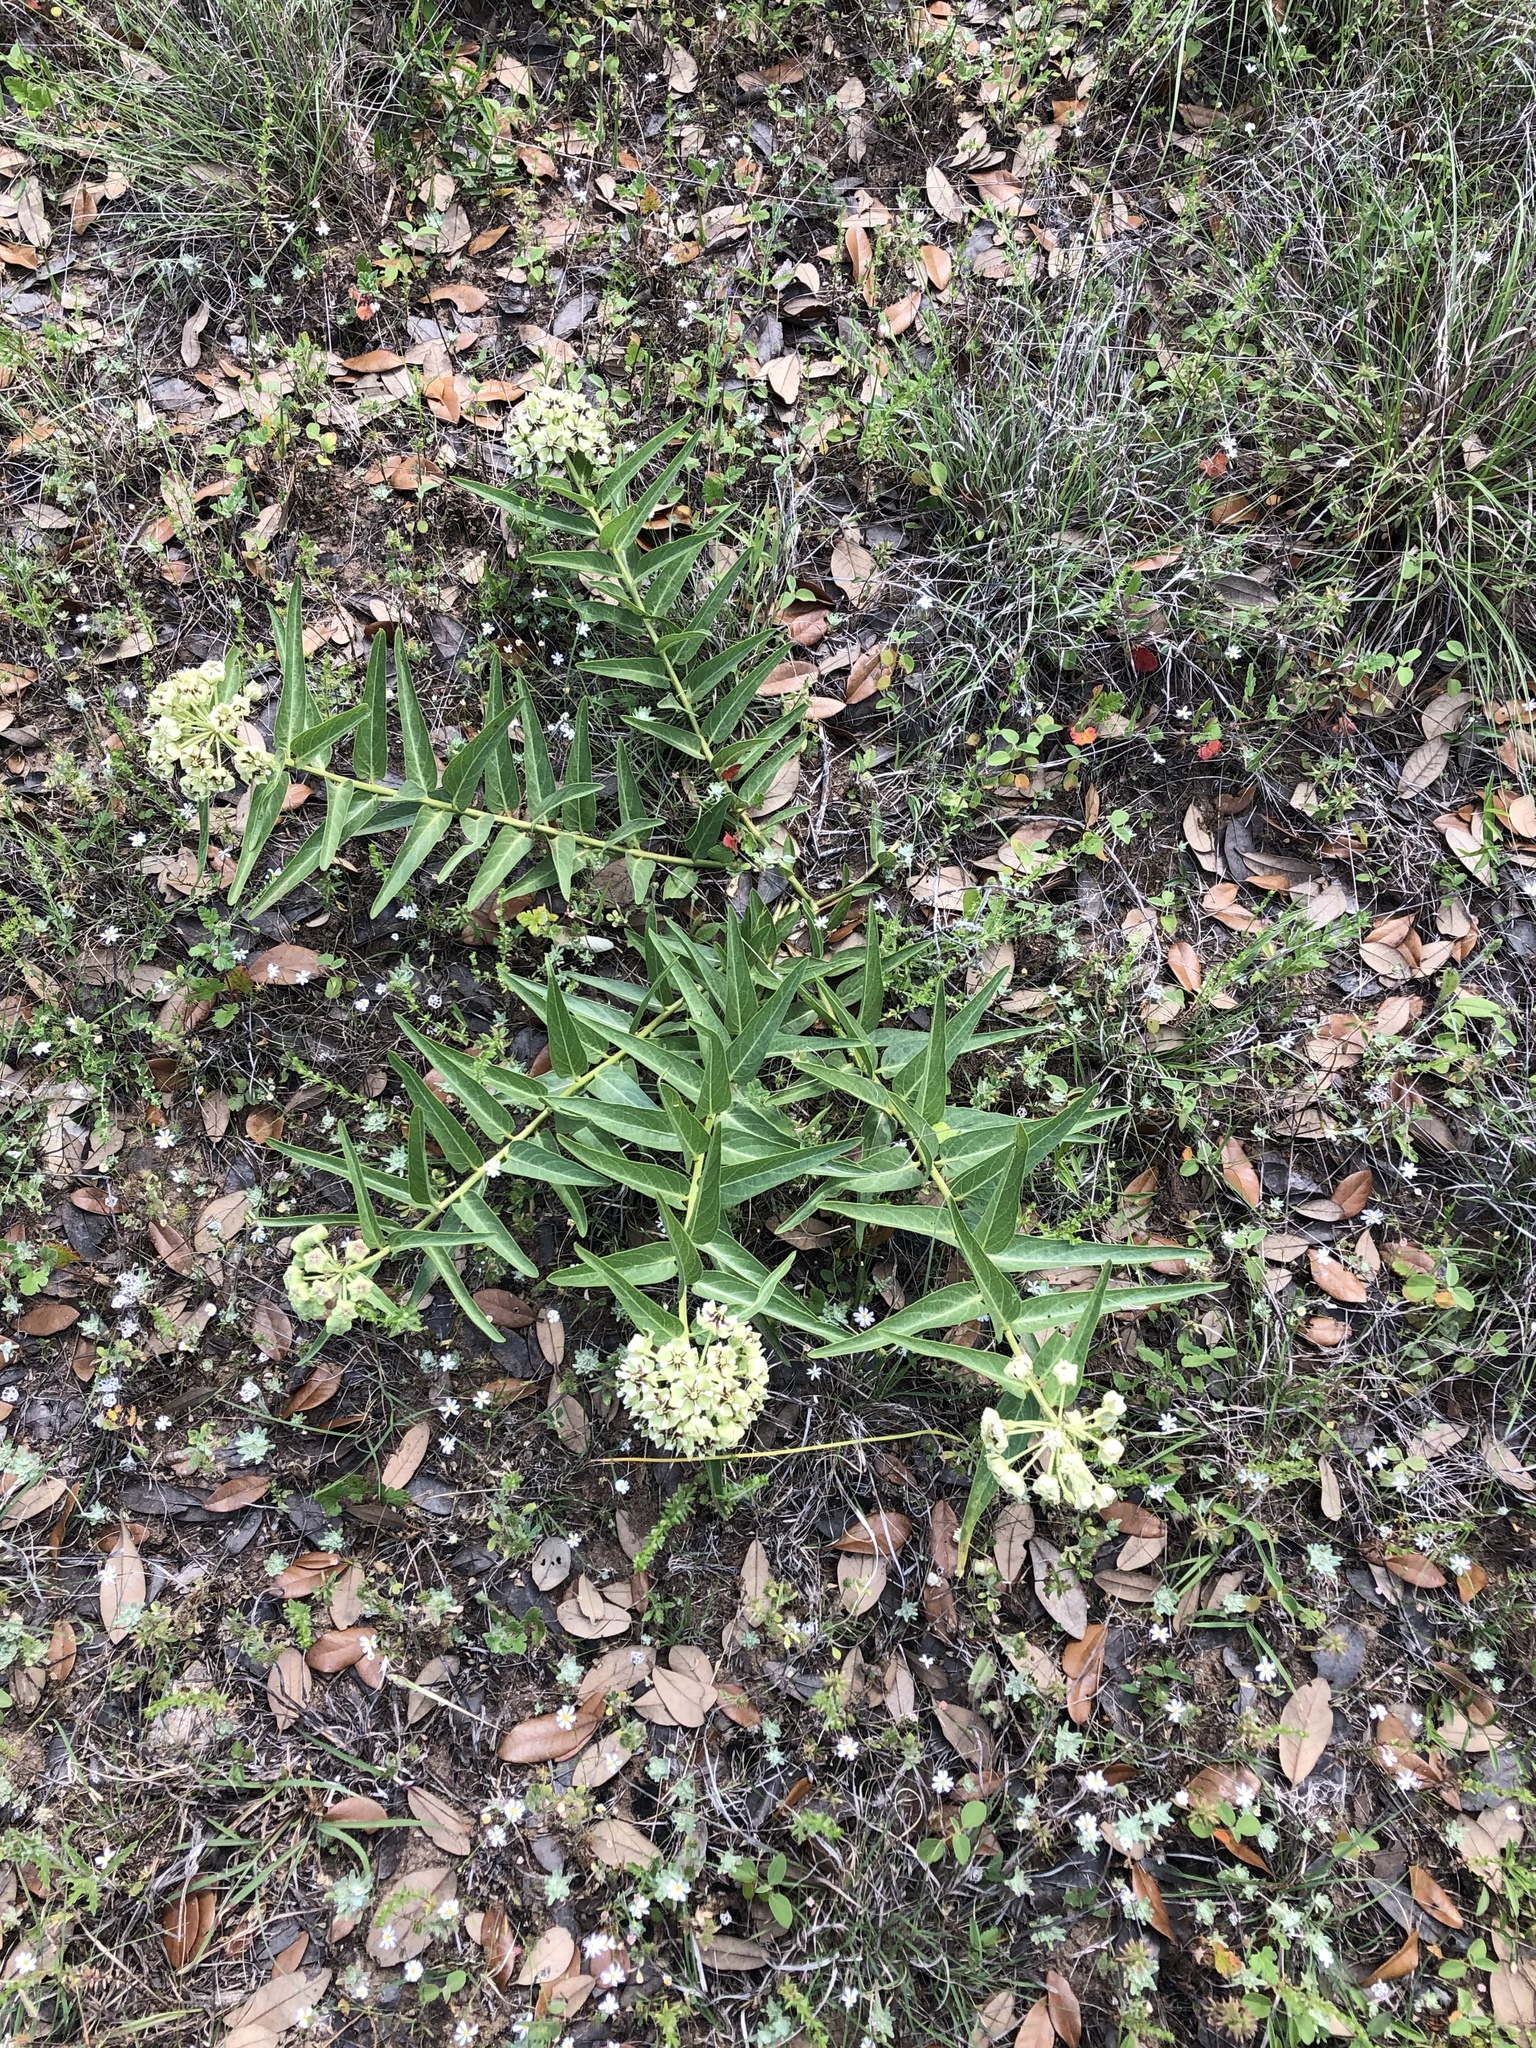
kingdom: Plantae
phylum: Tracheophyta
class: Magnoliopsida
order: Gentianales
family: Apocynaceae
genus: Asclepias
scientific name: Asclepias asperula
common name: Antelope horns
